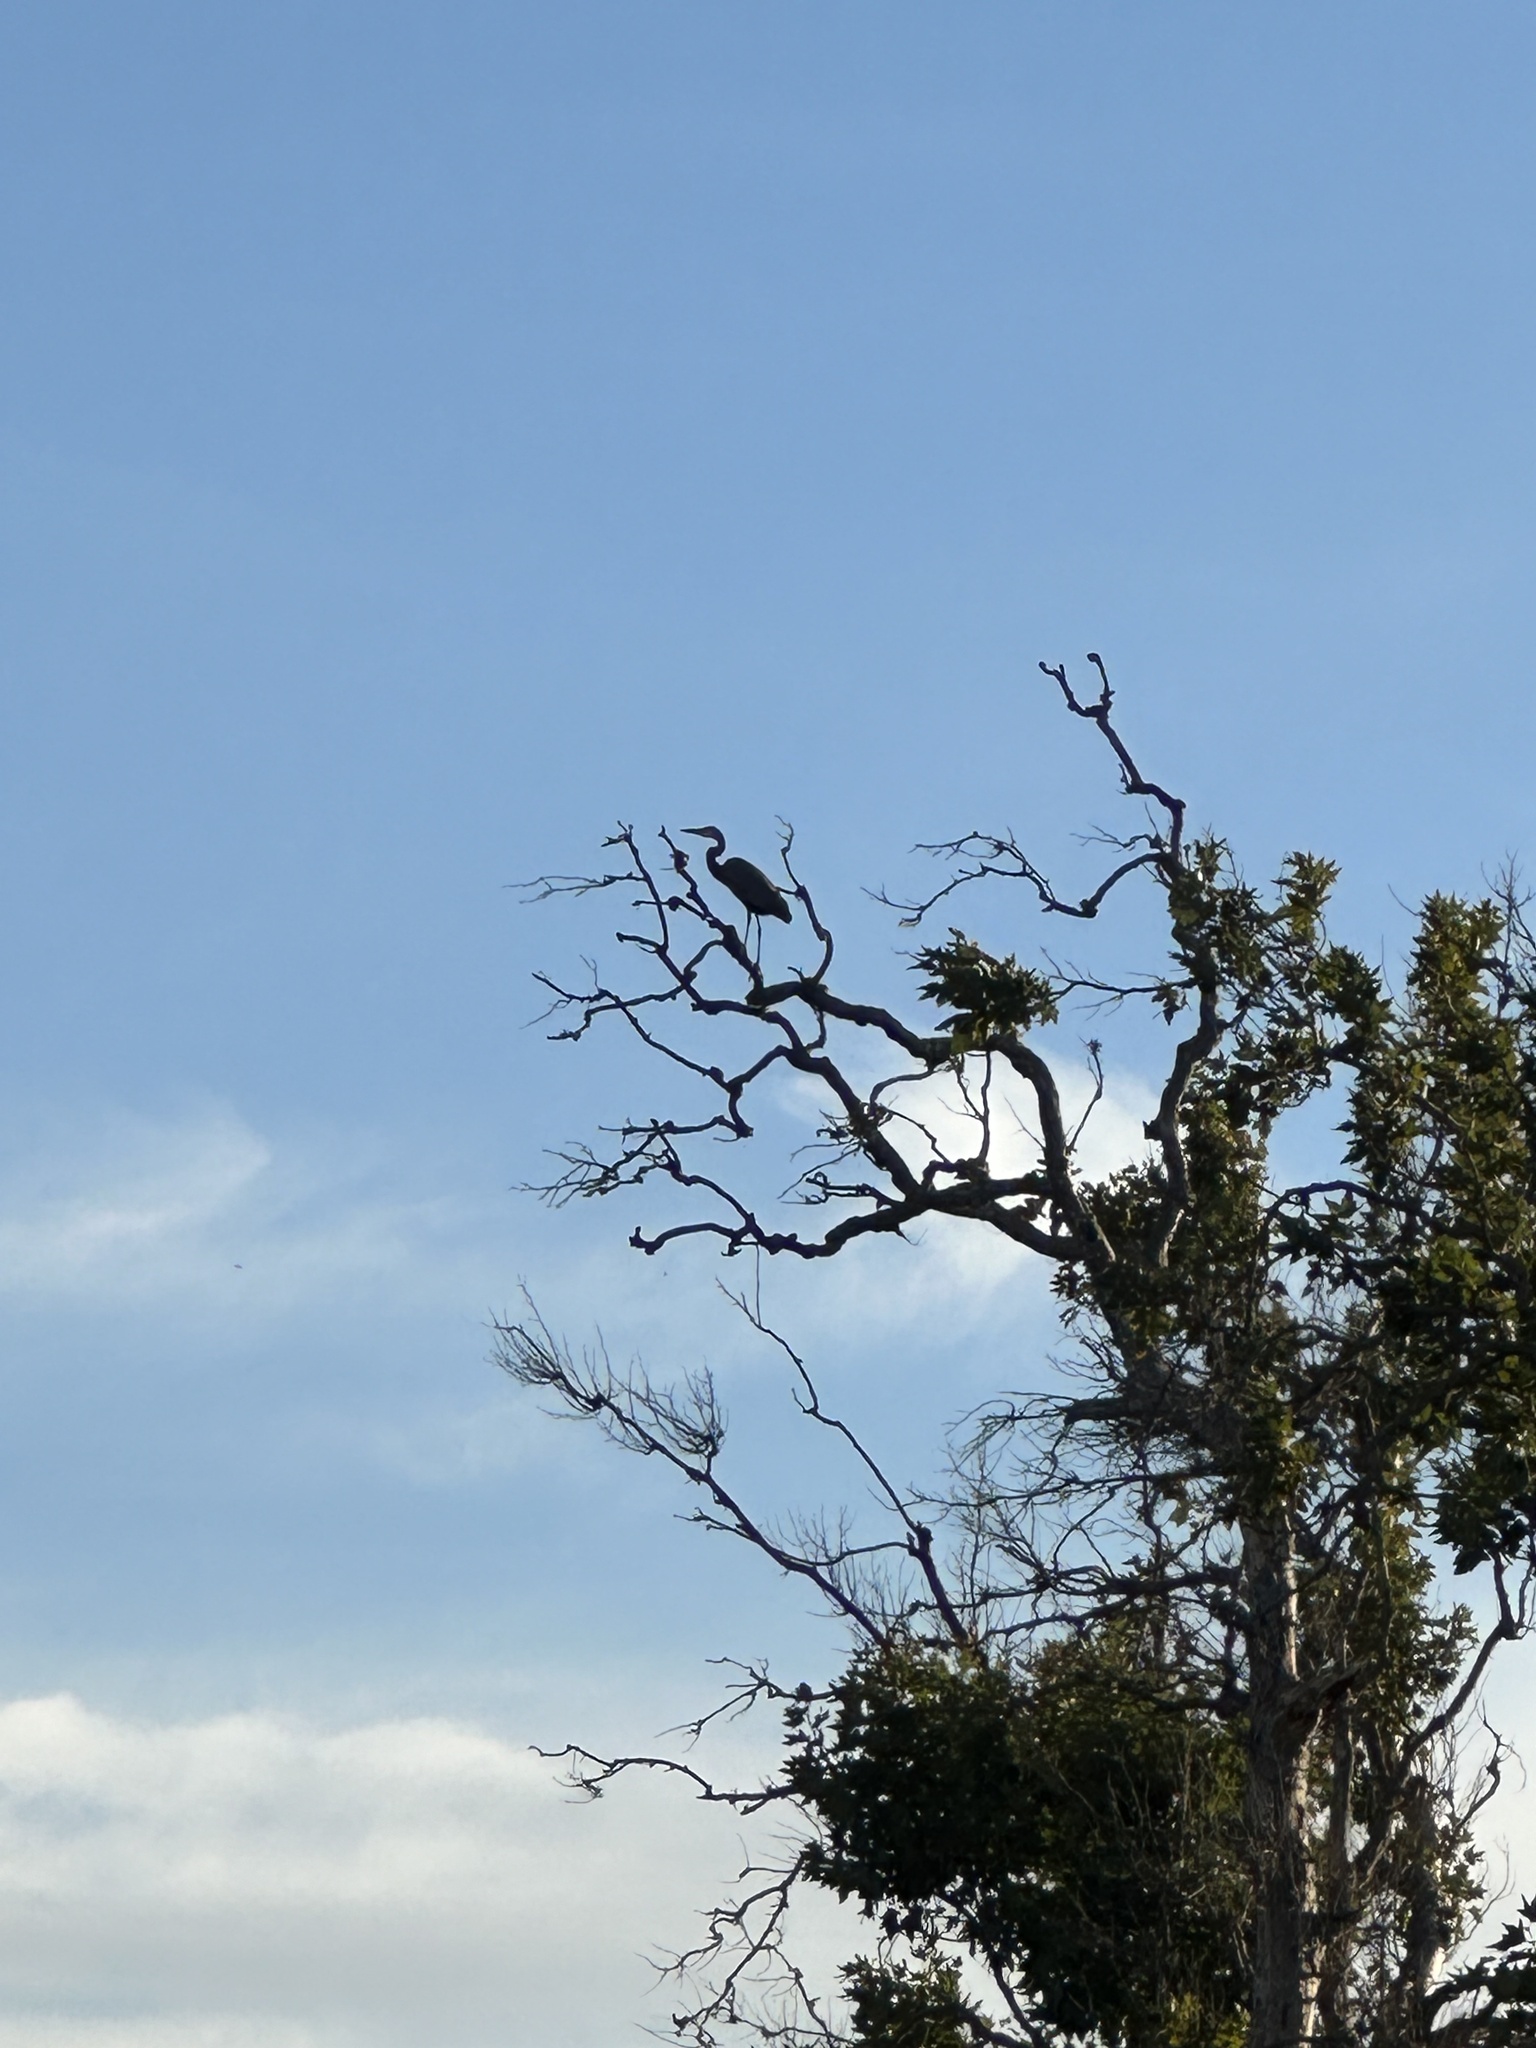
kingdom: Animalia
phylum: Chordata
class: Aves
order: Pelecaniformes
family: Ardeidae
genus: Ardea
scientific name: Ardea herodias
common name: Great blue heron
